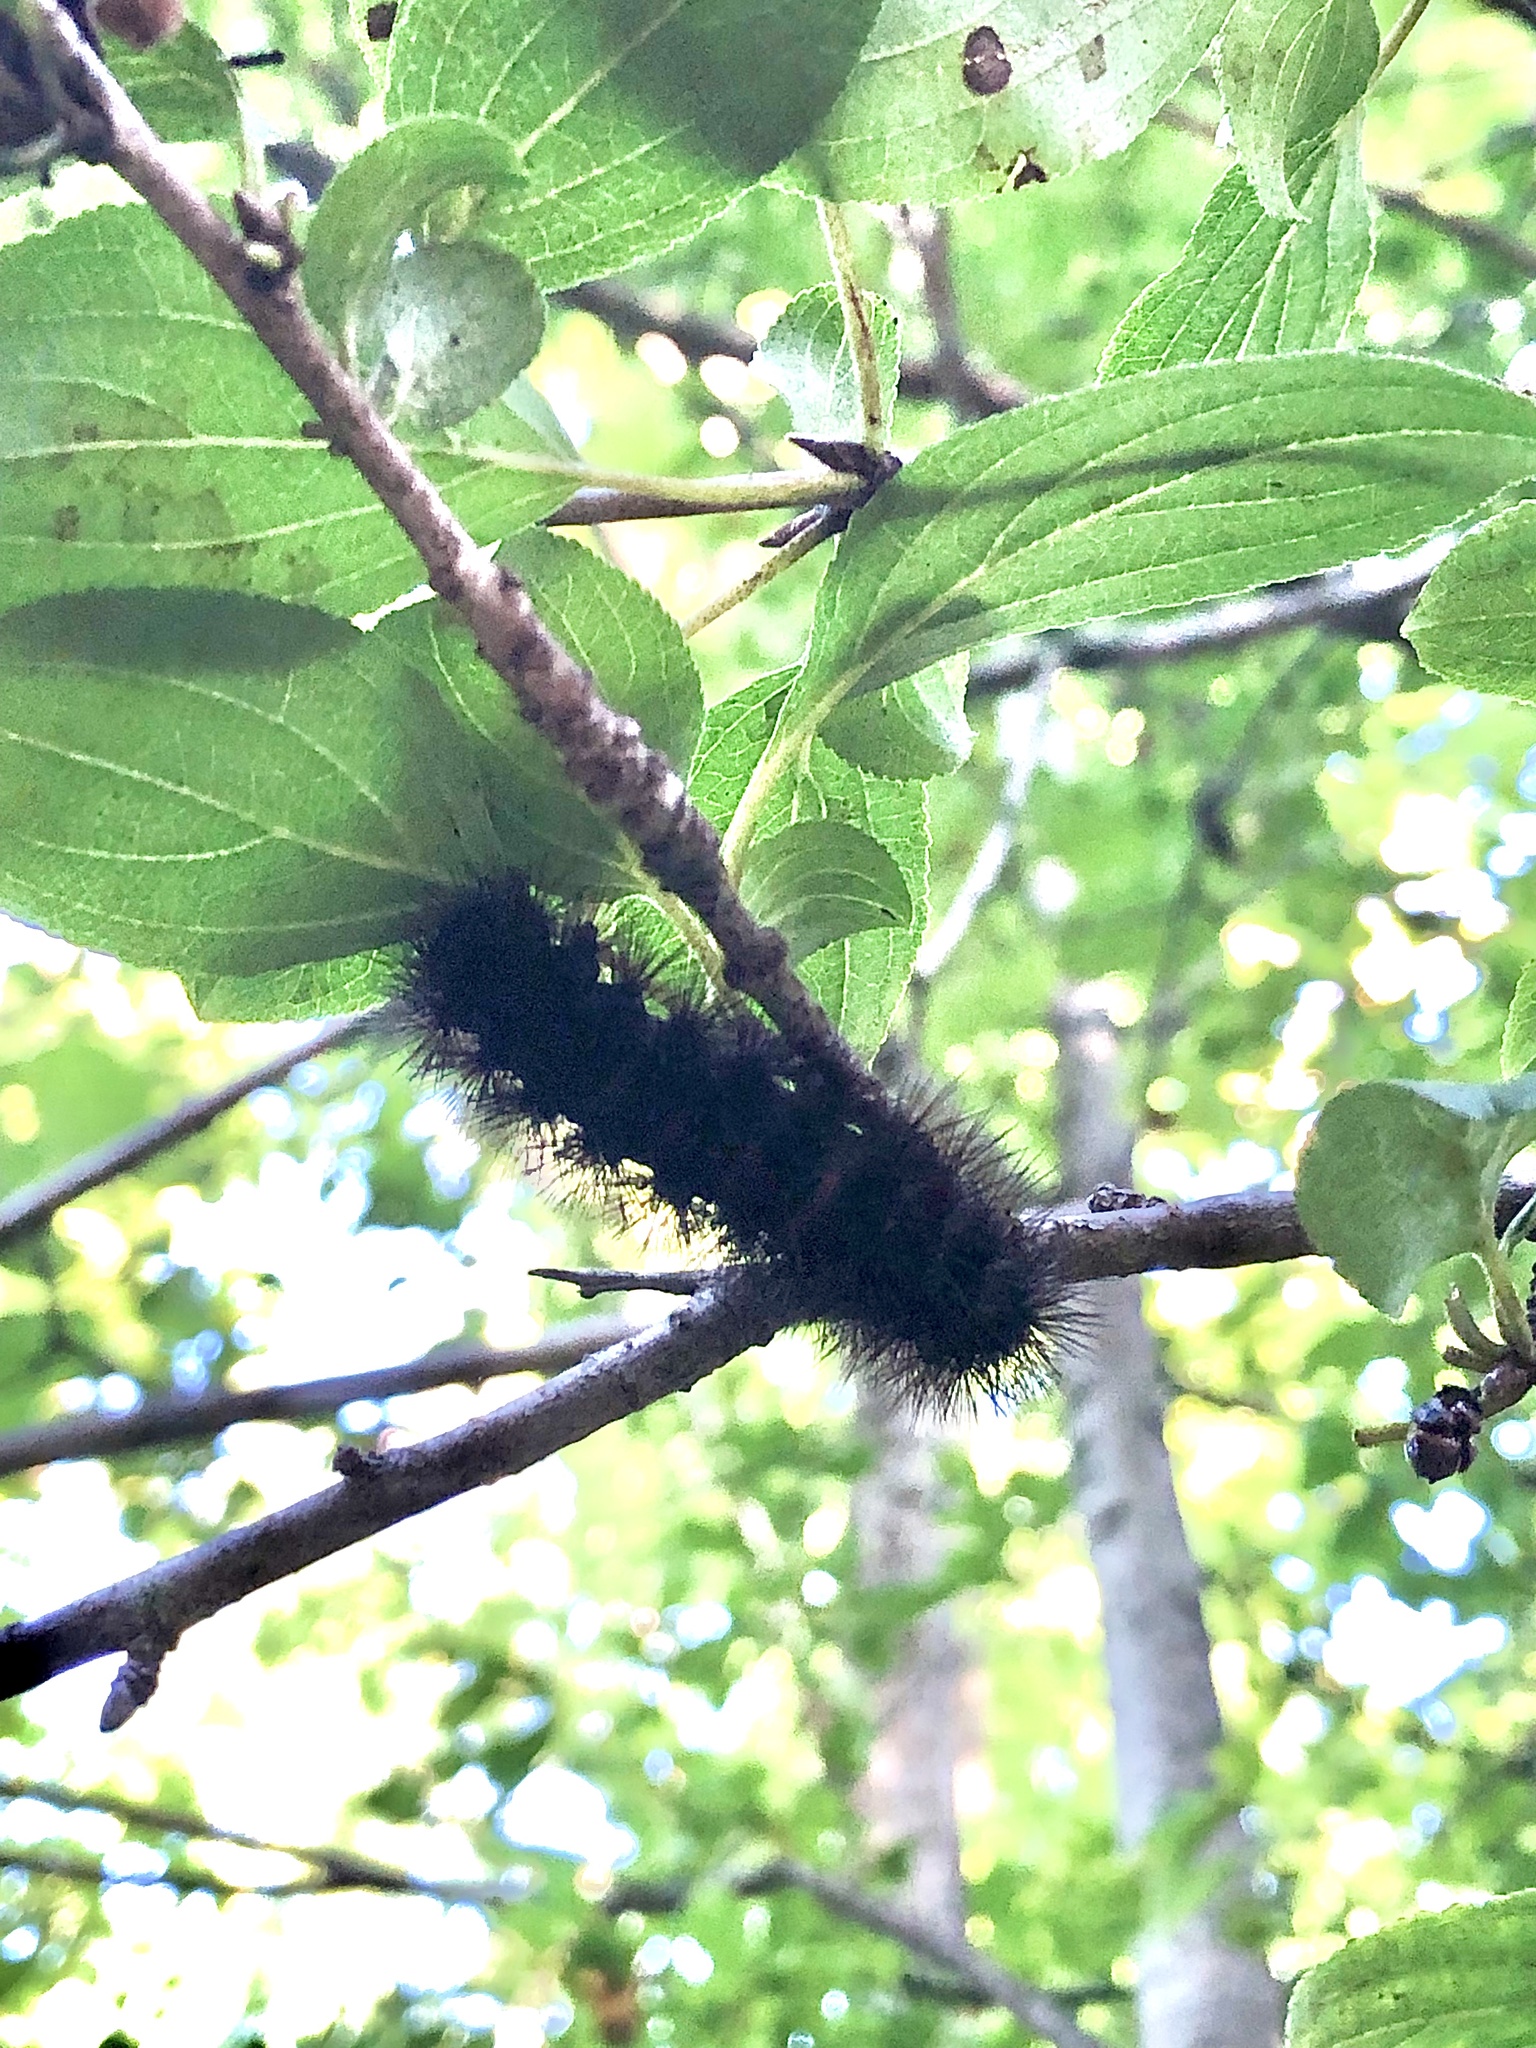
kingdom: Animalia
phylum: Arthropoda
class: Insecta
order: Lepidoptera
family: Erebidae
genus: Hypercompe
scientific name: Hypercompe scribonia
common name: Giant leopard moth
